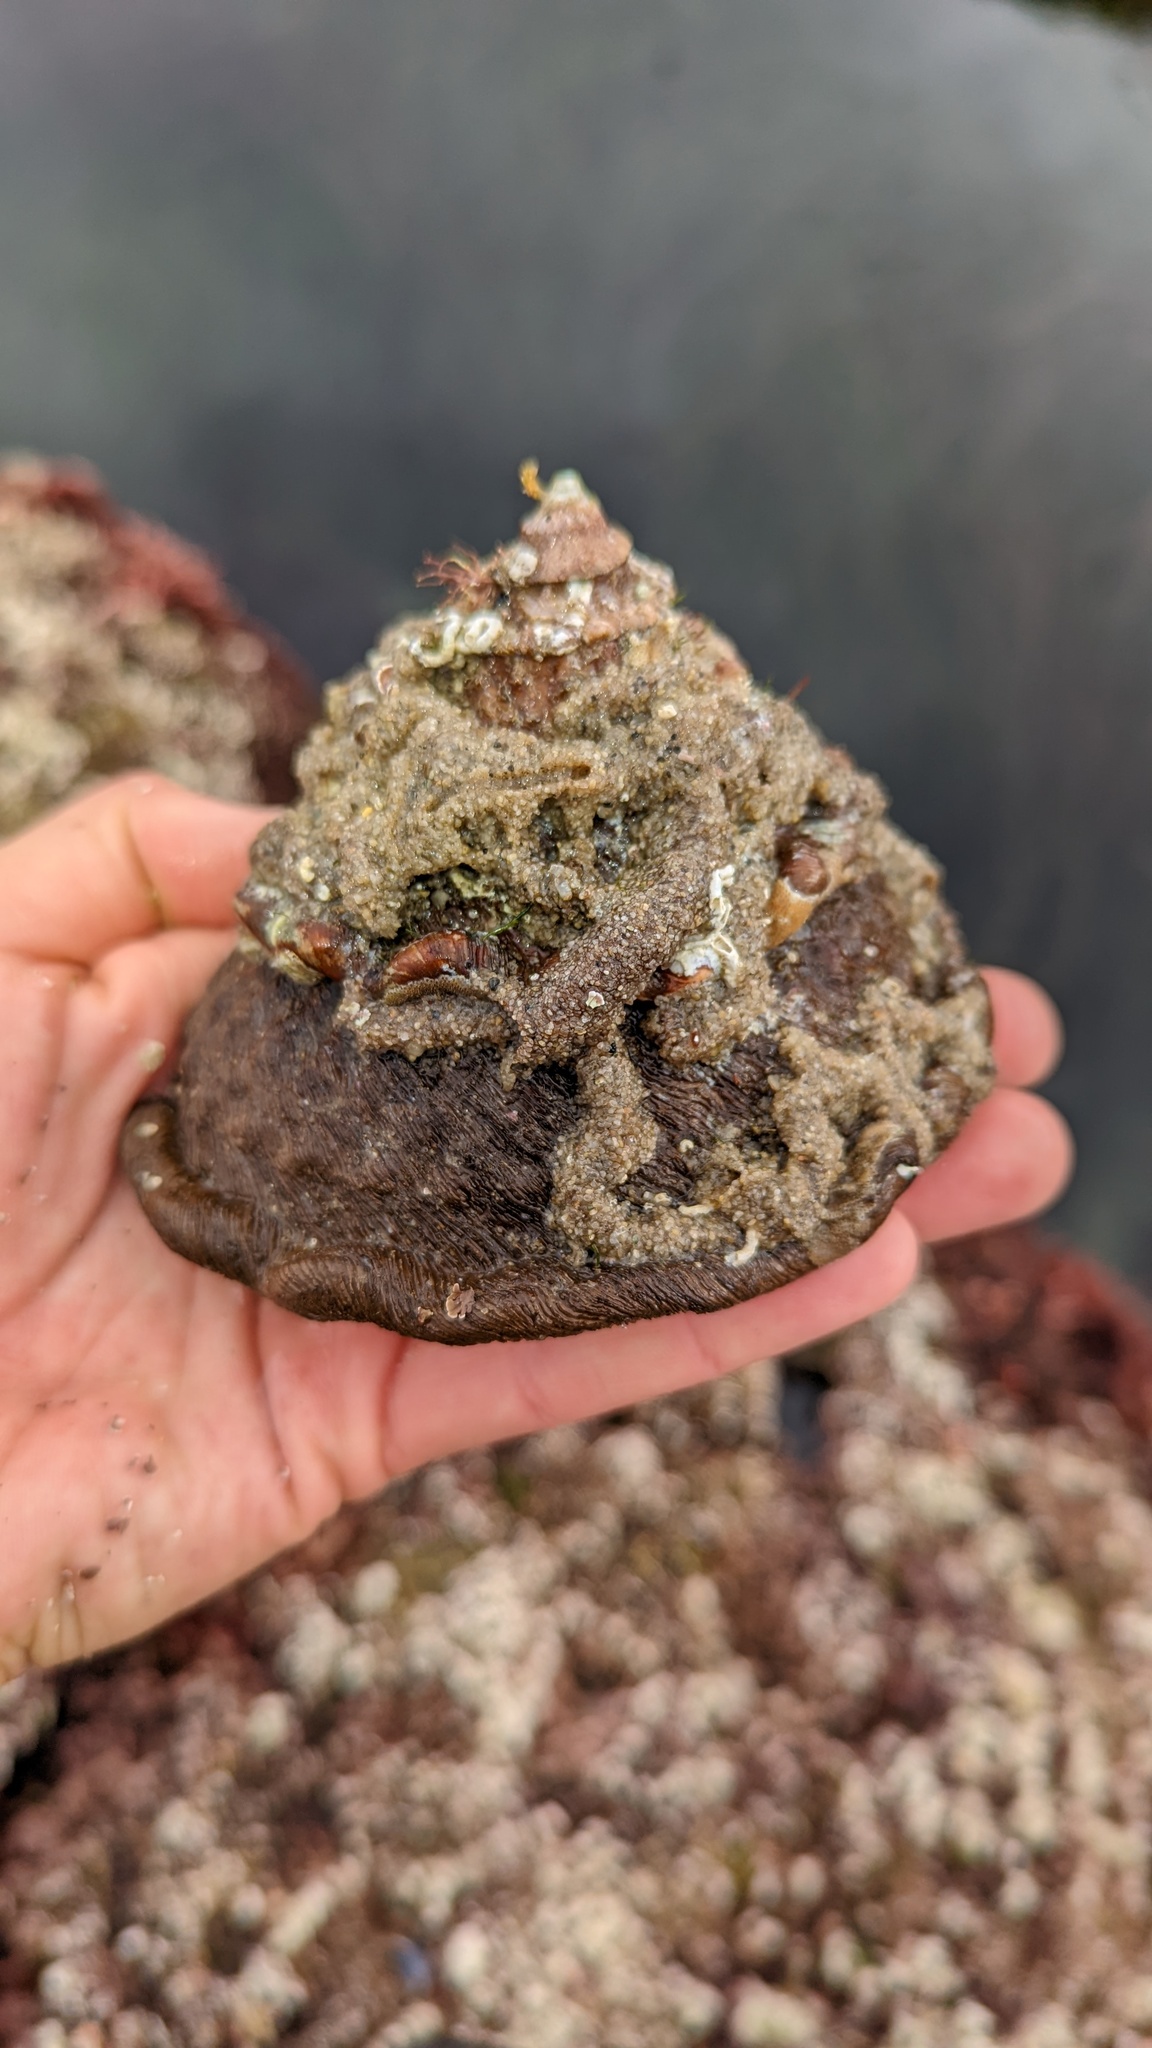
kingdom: Animalia
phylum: Mollusca
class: Gastropoda
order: Trochida
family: Turbinidae
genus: Megastraea
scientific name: Megastraea undosa
